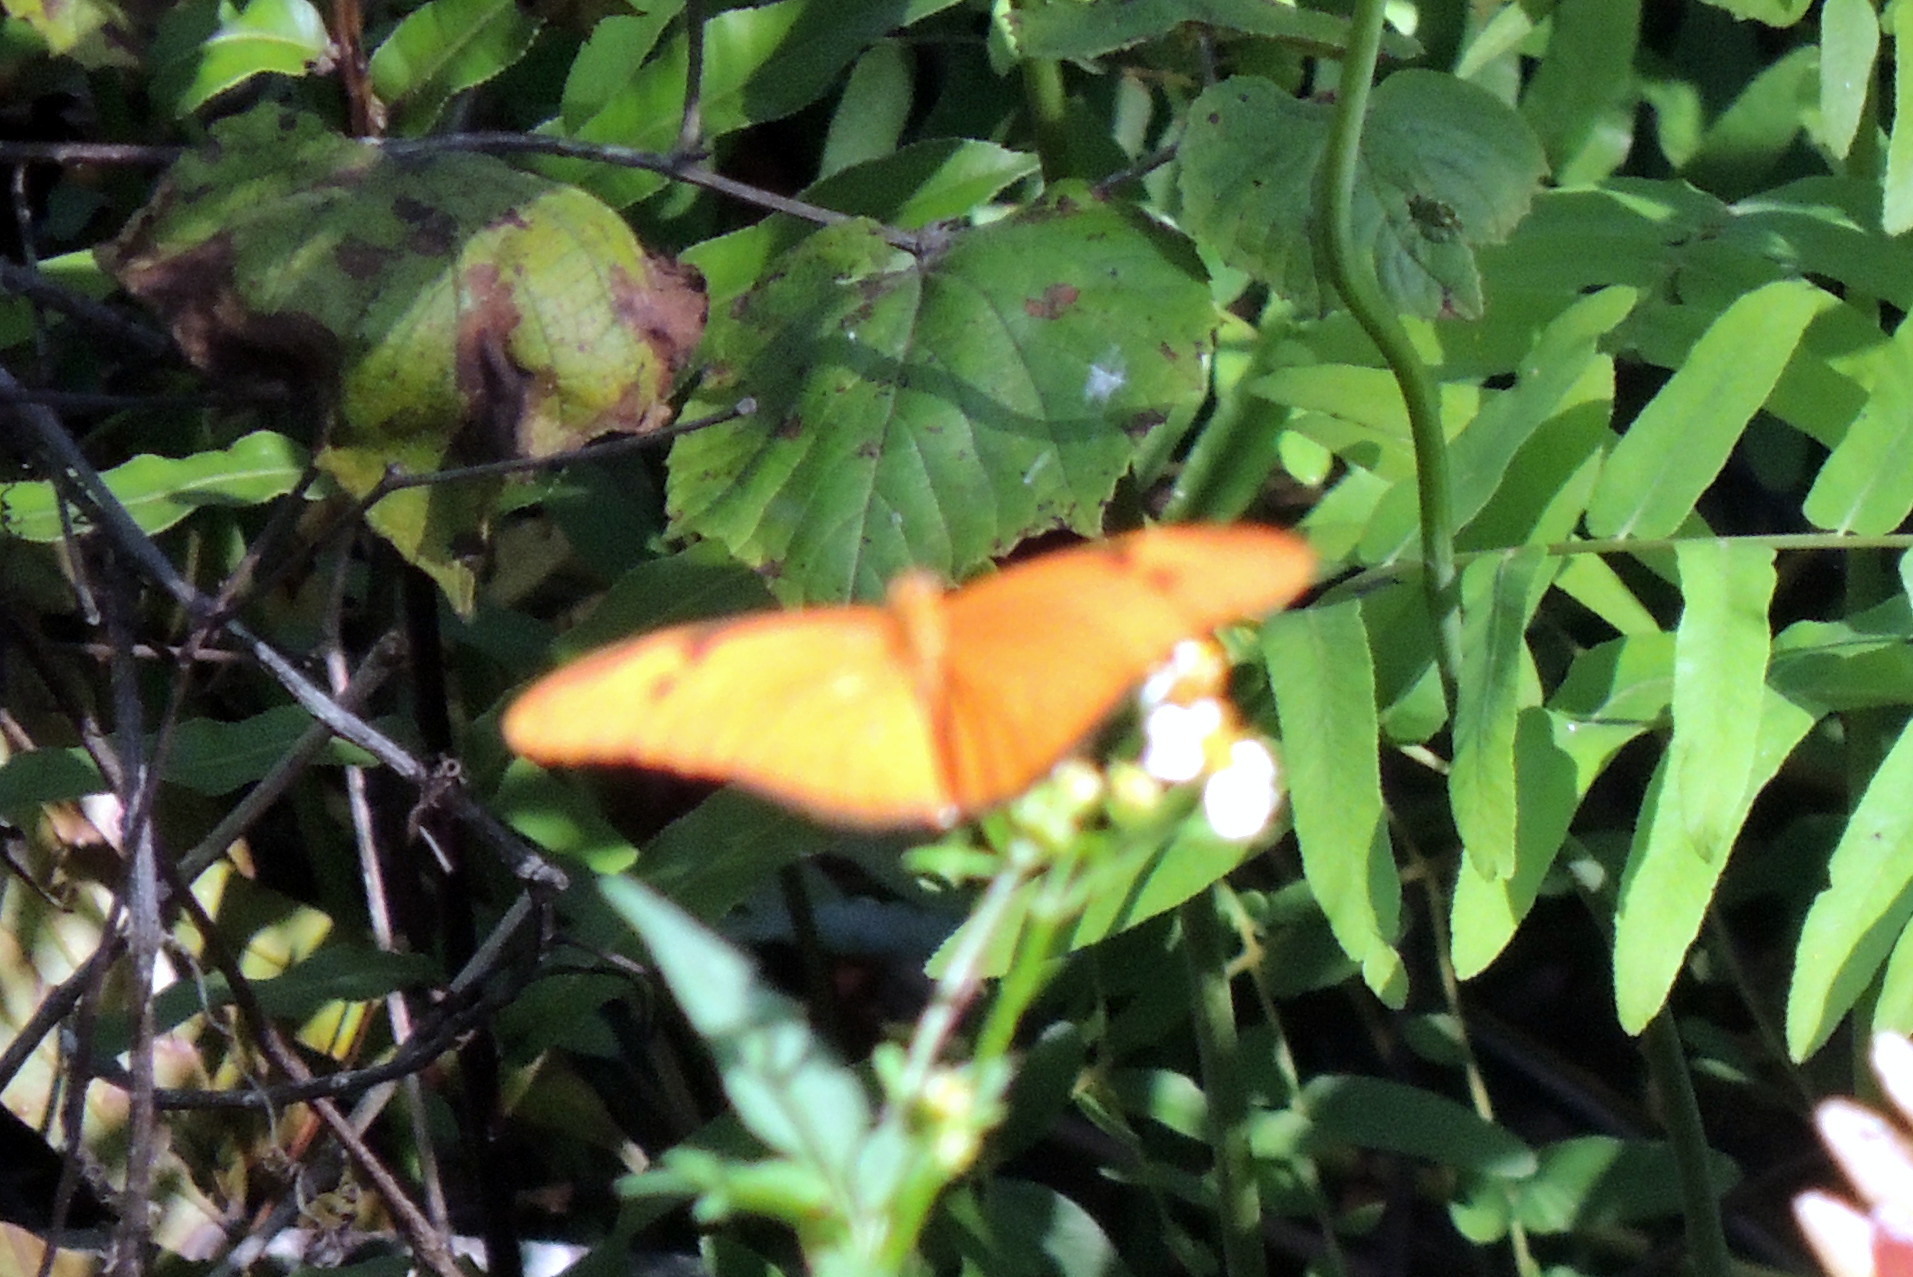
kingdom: Animalia
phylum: Arthropoda
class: Insecta
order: Lepidoptera
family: Nymphalidae
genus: Dryas
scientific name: Dryas iulia
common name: Flambeau
